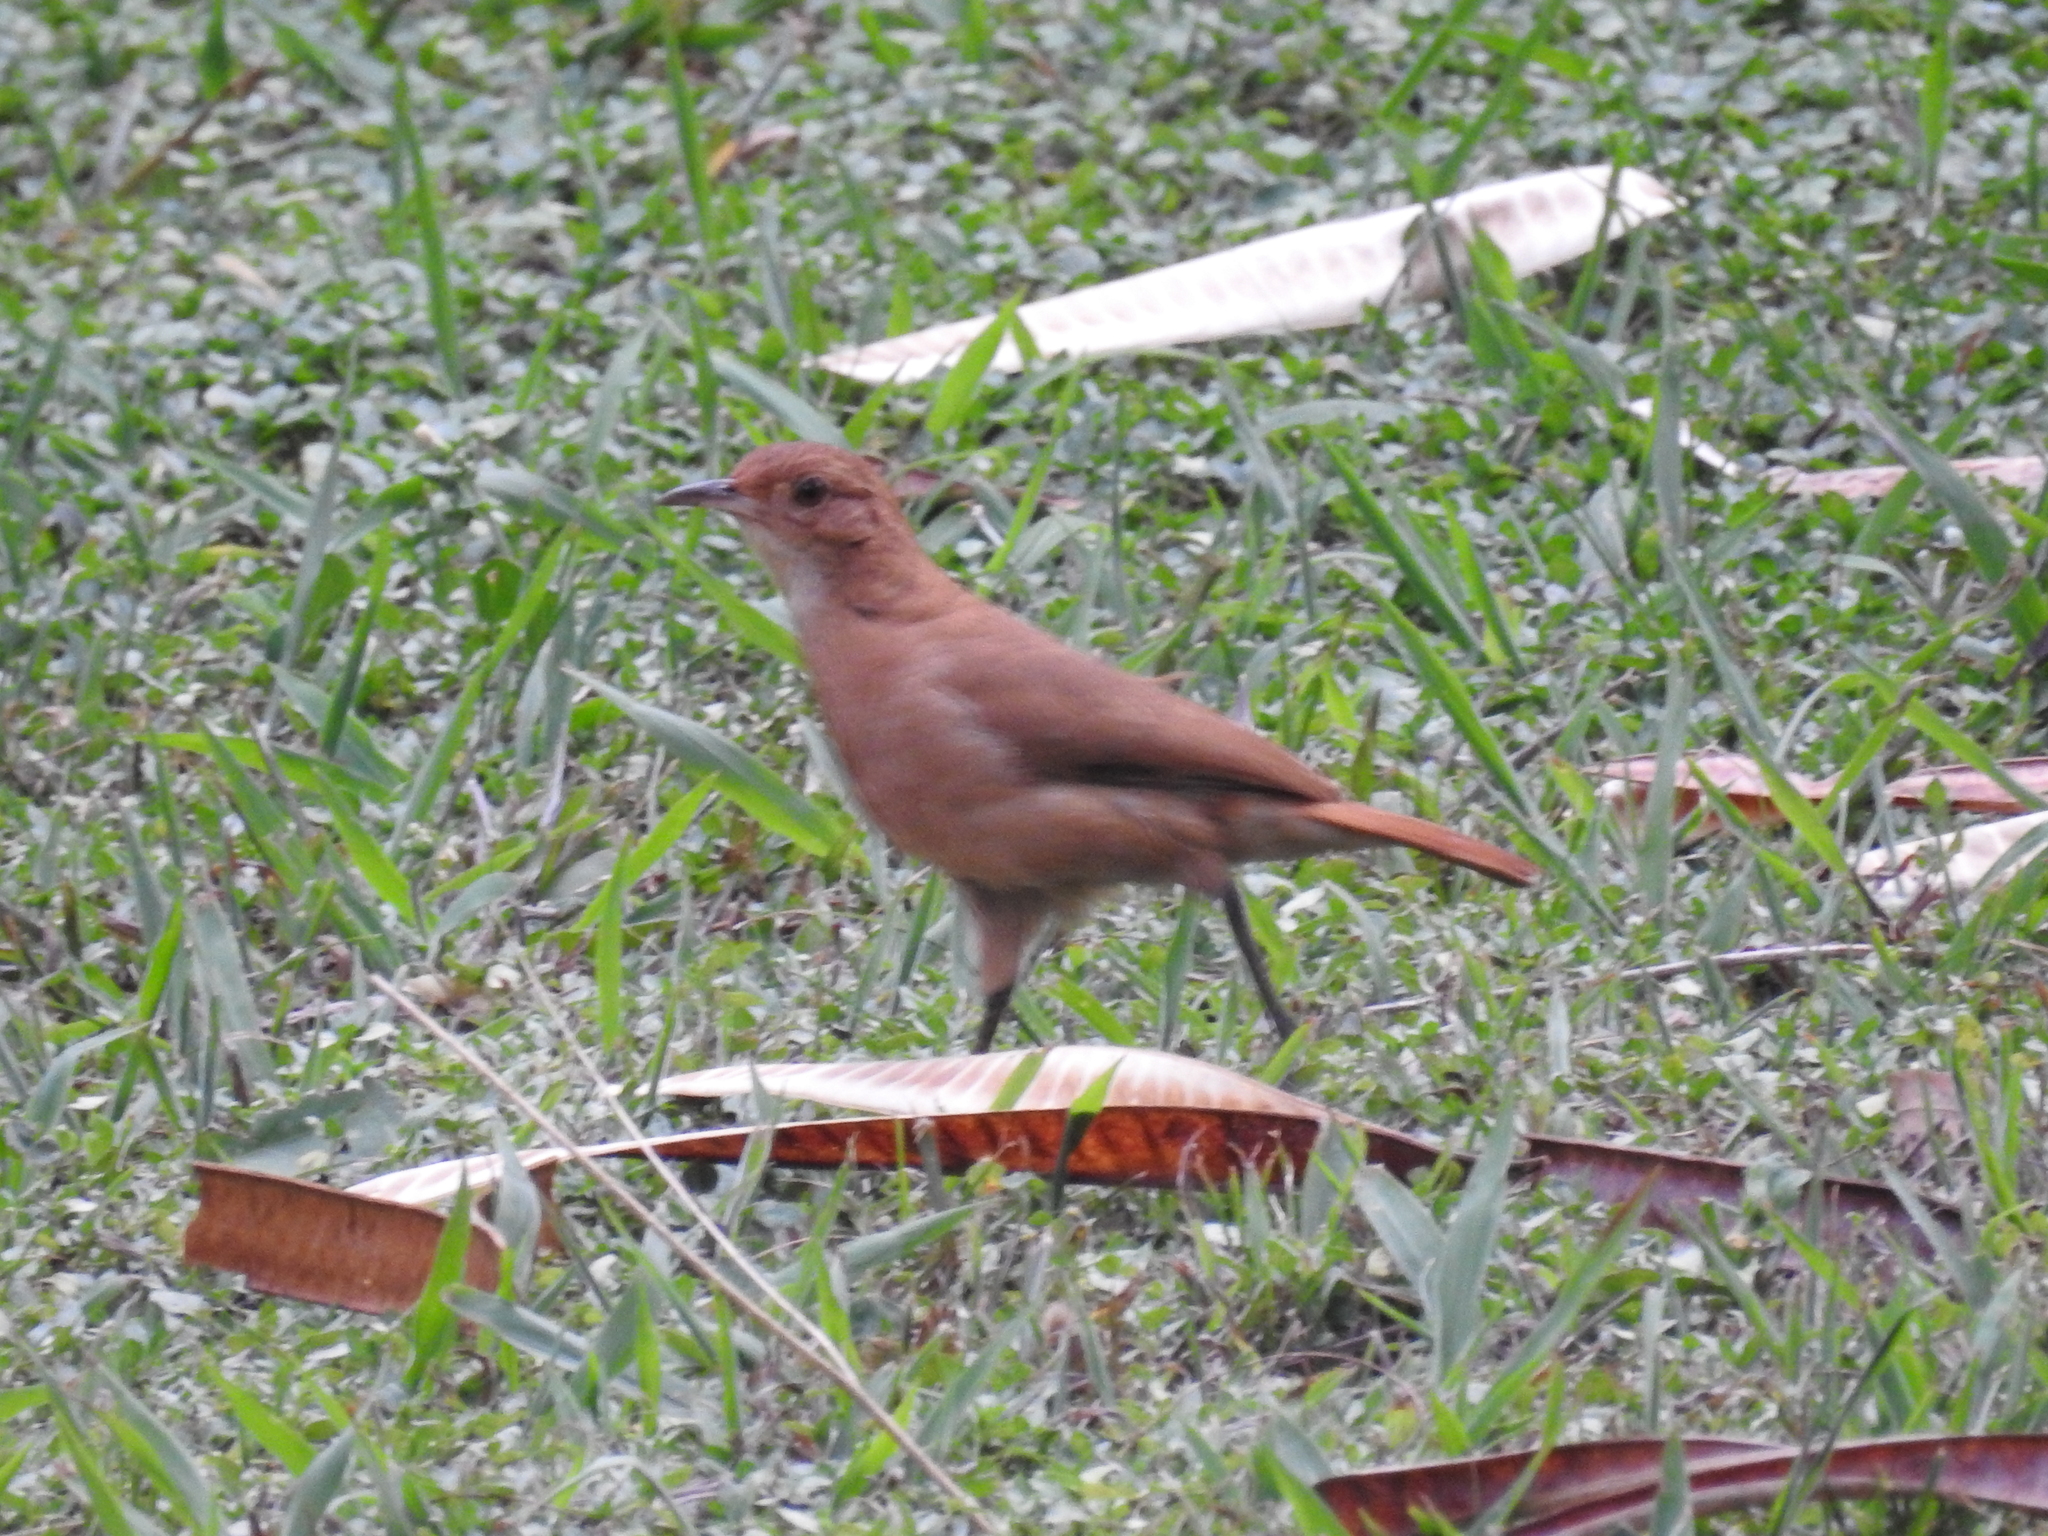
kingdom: Animalia
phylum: Chordata
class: Aves
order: Passeriformes
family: Furnariidae
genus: Furnarius
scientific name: Furnarius rufus
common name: Rufous hornero
